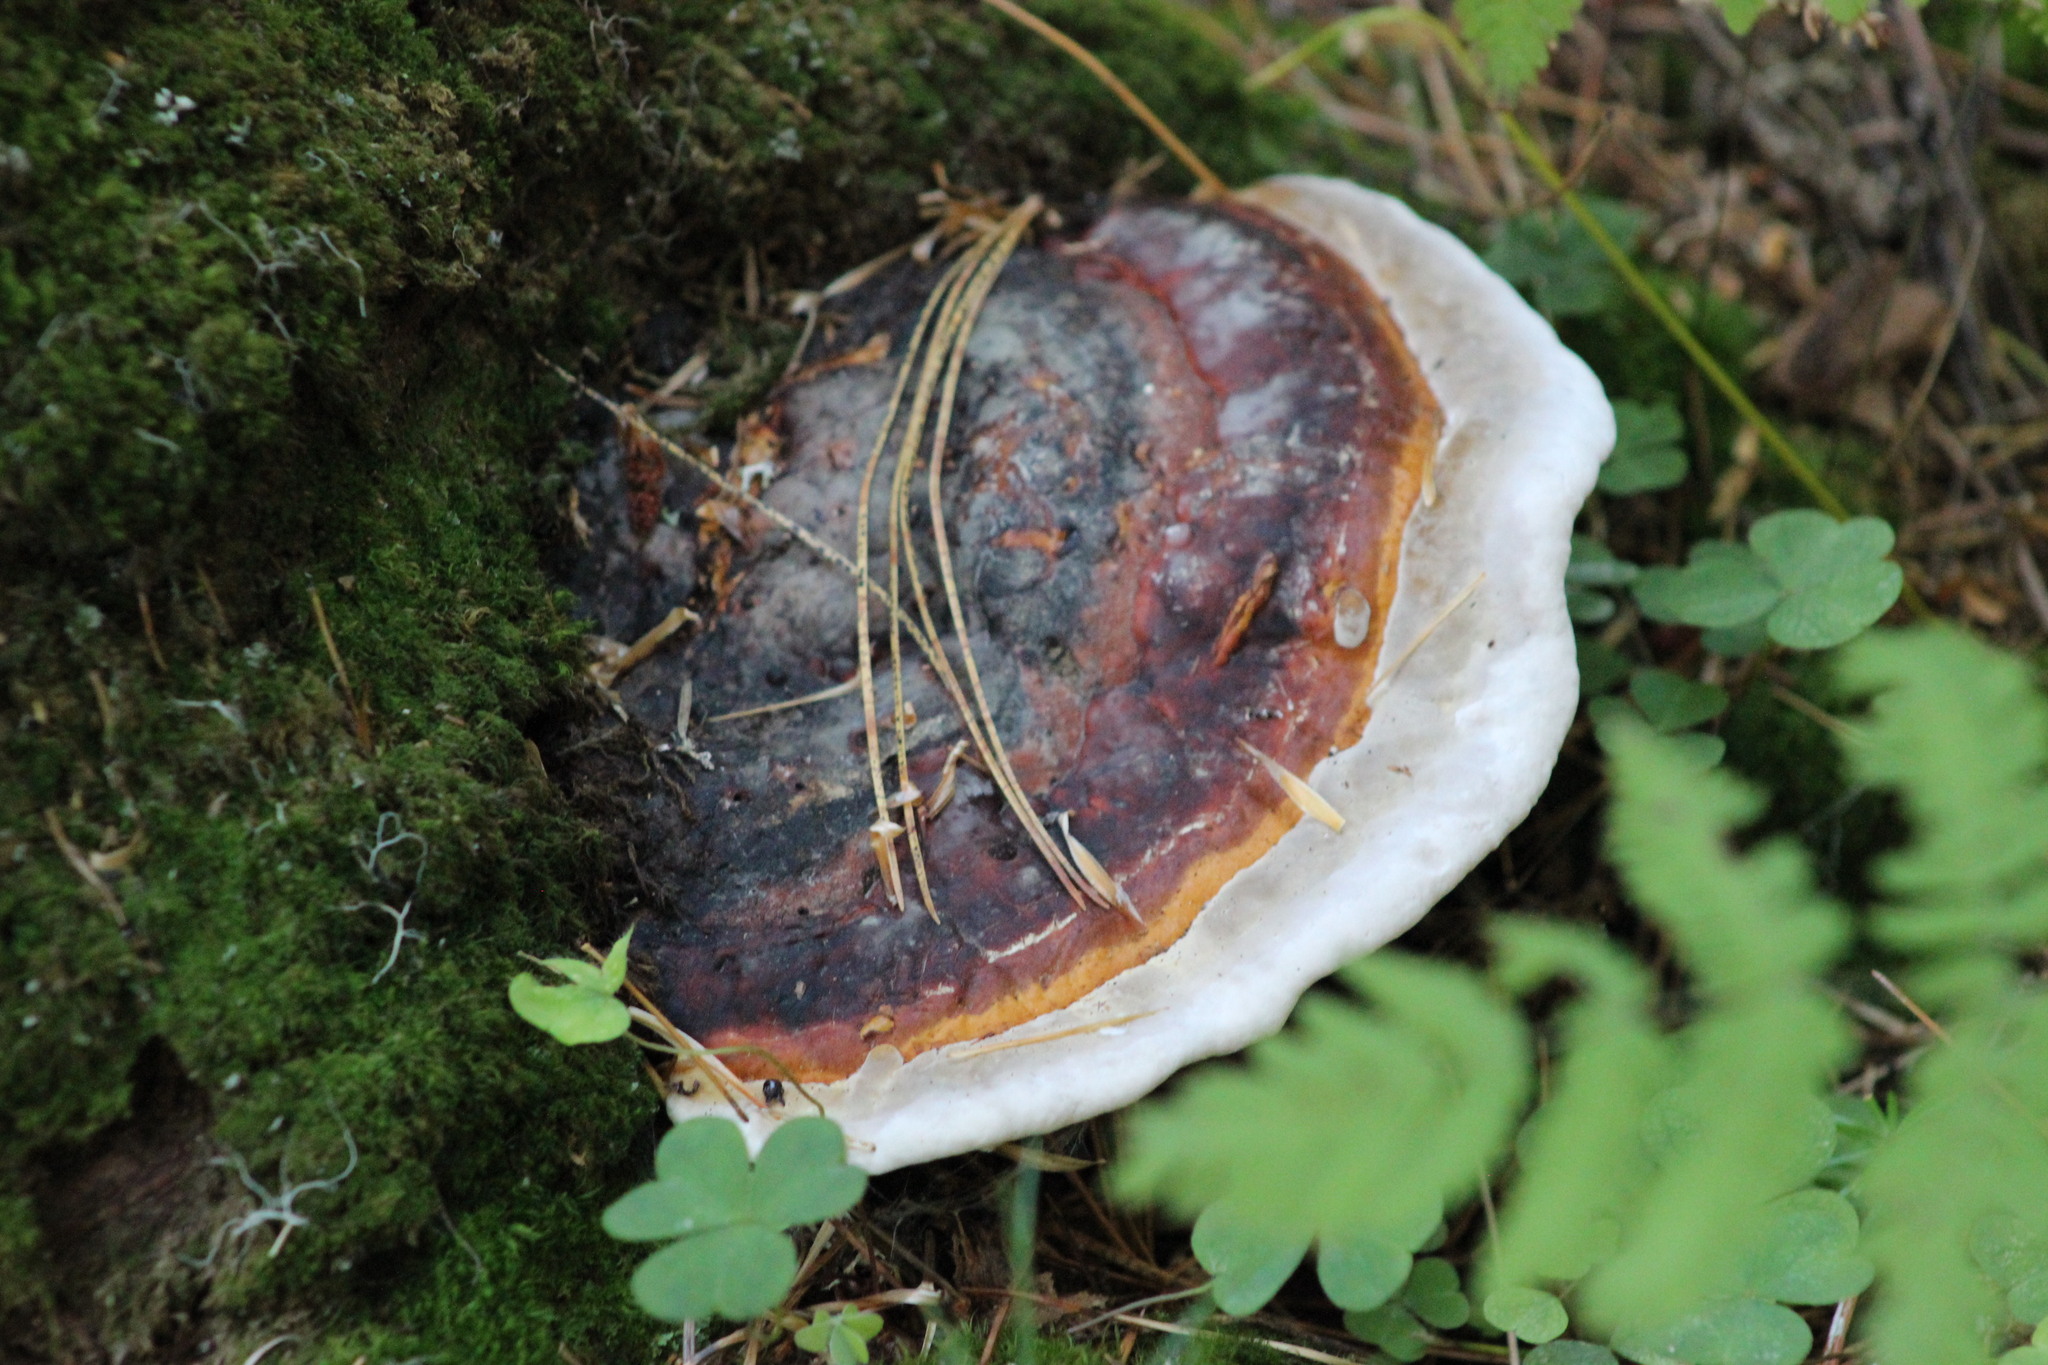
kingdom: Fungi
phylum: Basidiomycota
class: Agaricomycetes
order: Polyporales
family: Fomitopsidaceae
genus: Fomitopsis
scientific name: Fomitopsis pinicola
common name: Red-belted bracket
